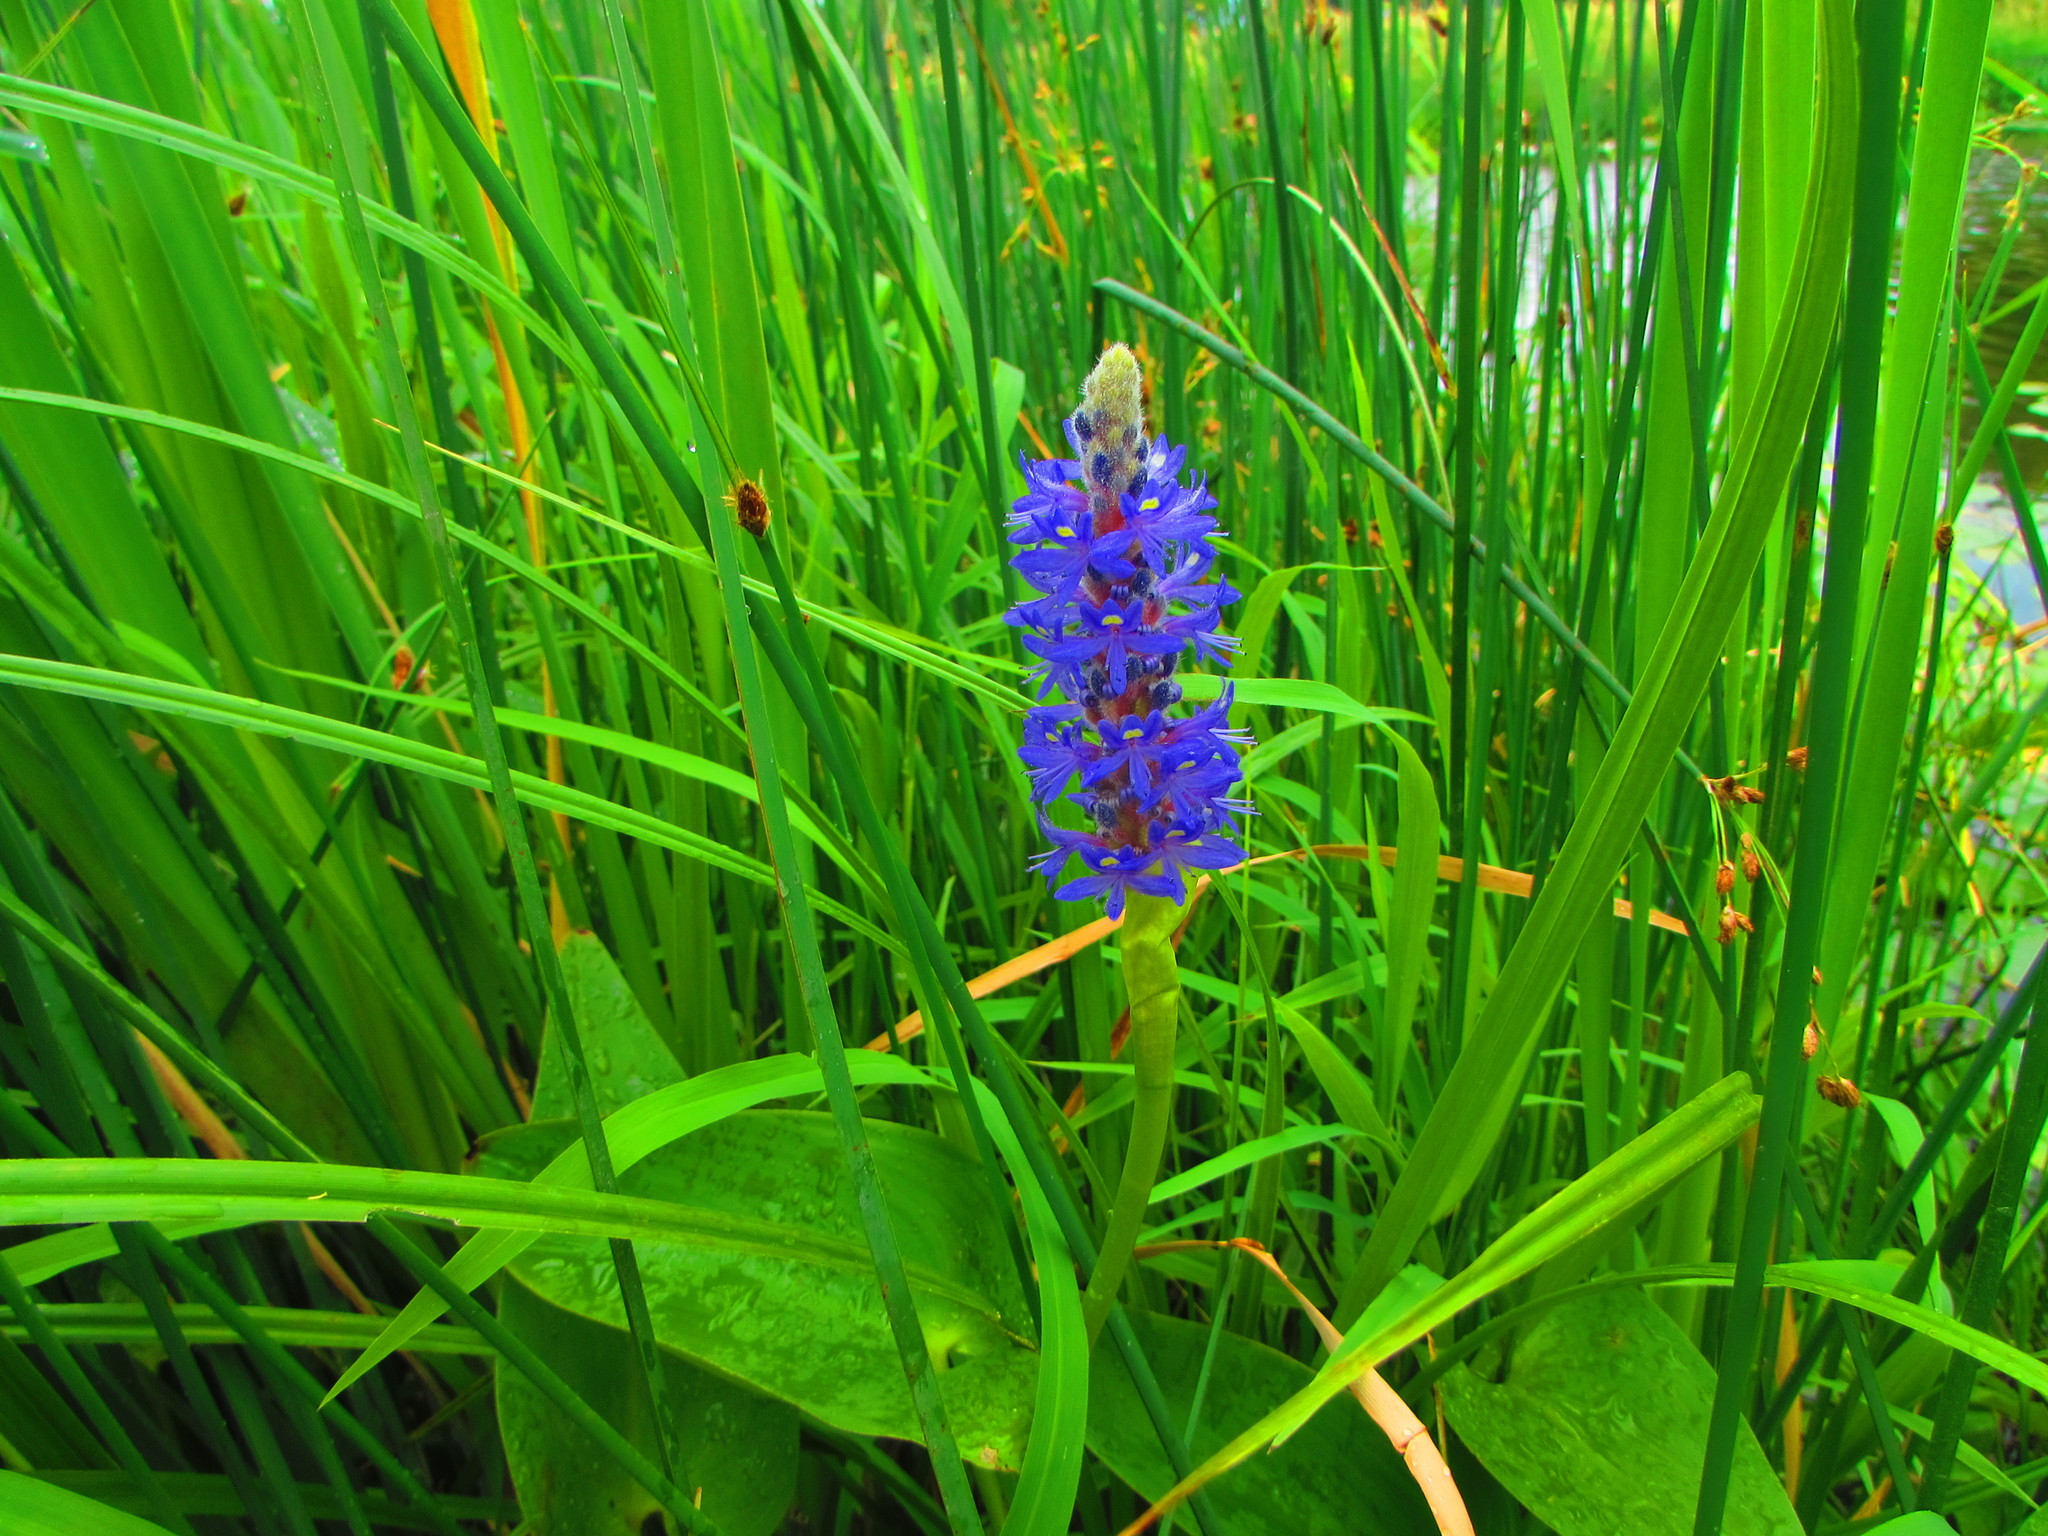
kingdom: Plantae
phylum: Tracheophyta
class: Liliopsida
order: Commelinales
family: Pontederiaceae
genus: Pontederia
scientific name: Pontederia cordata
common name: Pickerelweed
